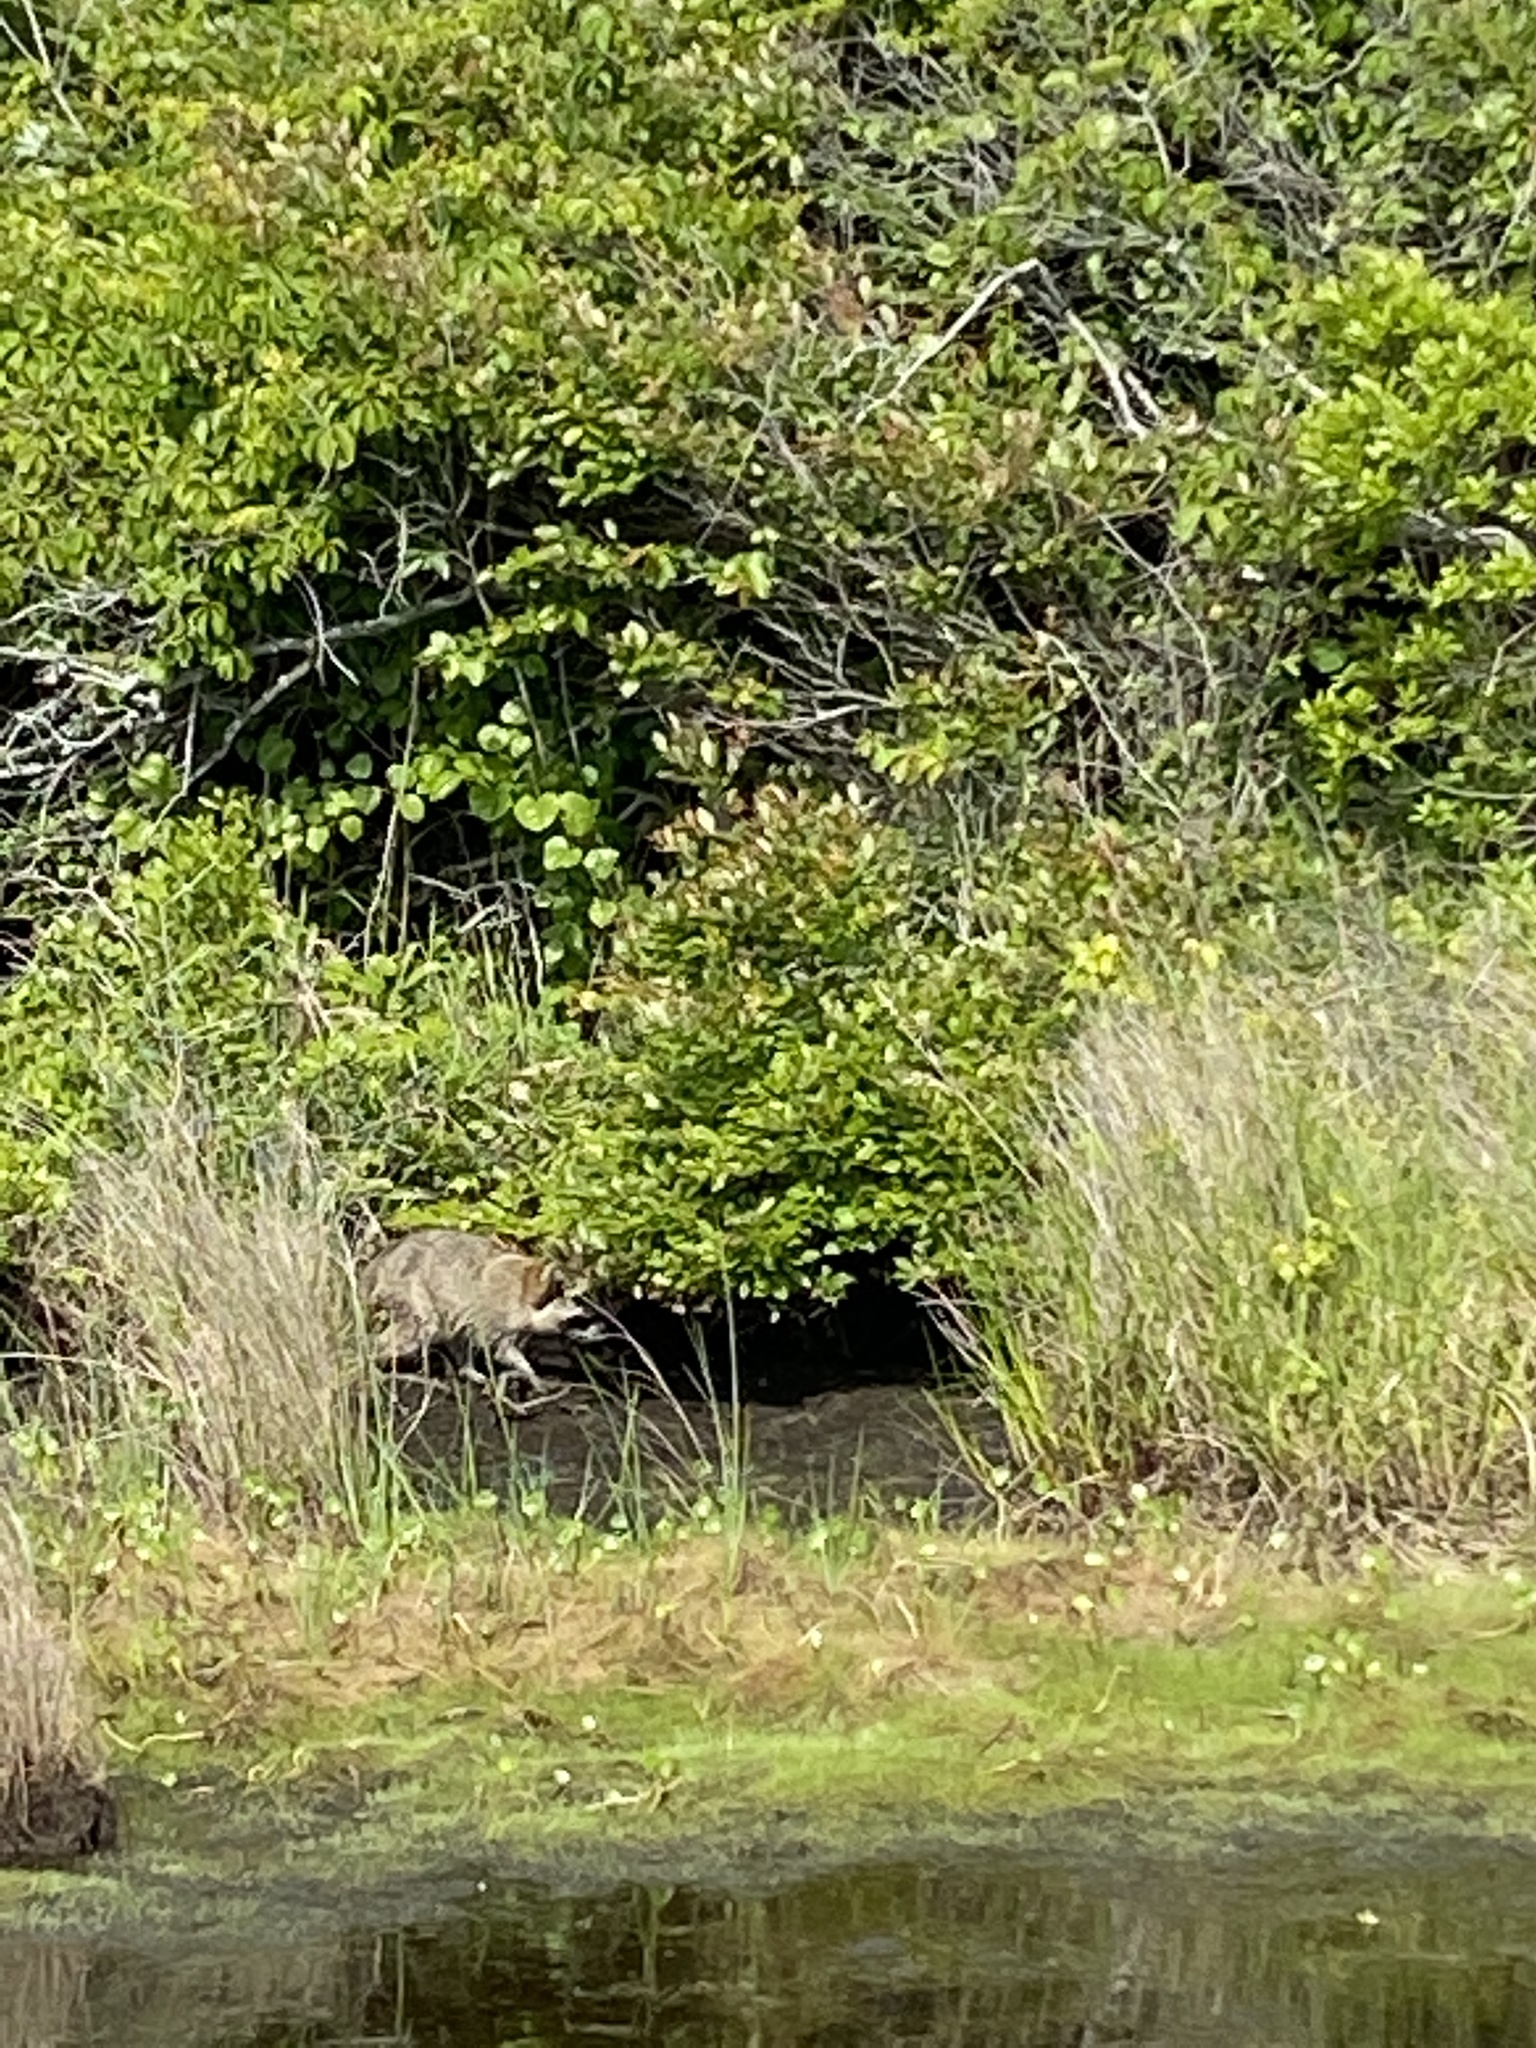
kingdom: Animalia
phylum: Chordata
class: Mammalia
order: Carnivora
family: Procyonidae
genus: Procyon
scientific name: Procyon lotor
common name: Raccoon
